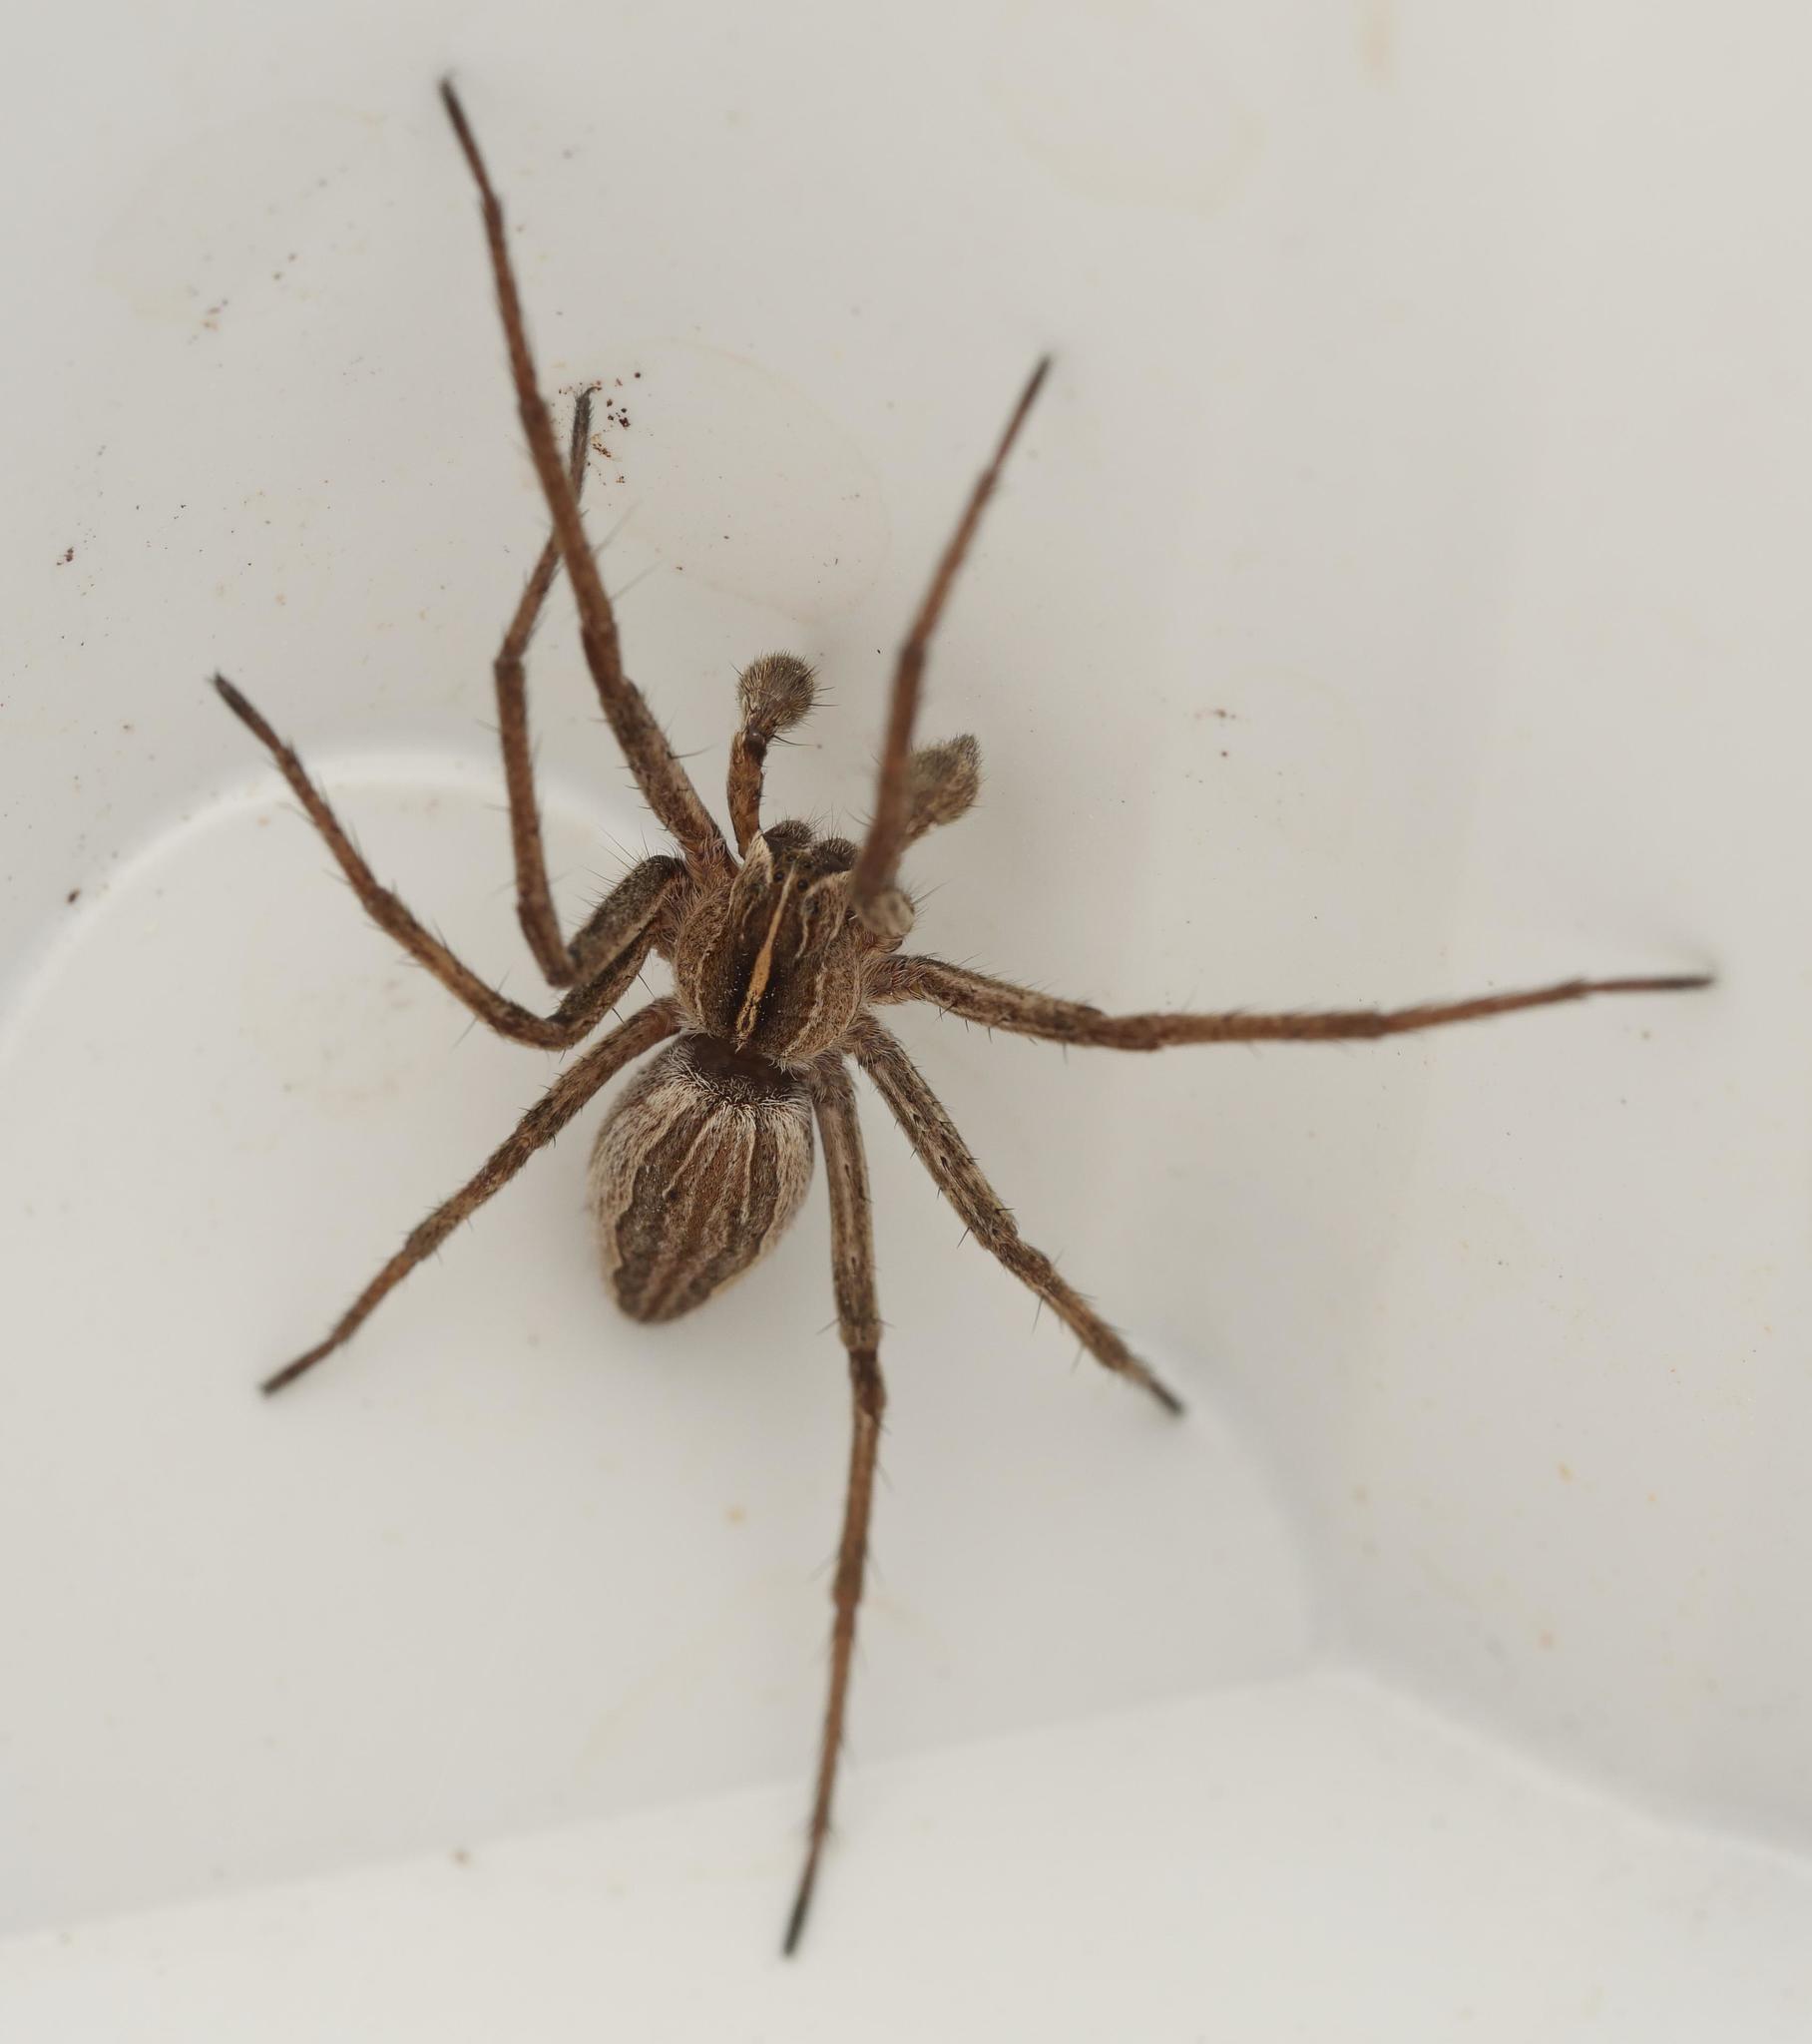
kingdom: Animalia
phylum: Arthropoda
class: Arachnida
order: Araneae
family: Pisauridae
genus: Pisaura
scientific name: Pisaura mirabilis
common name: Tent spider
